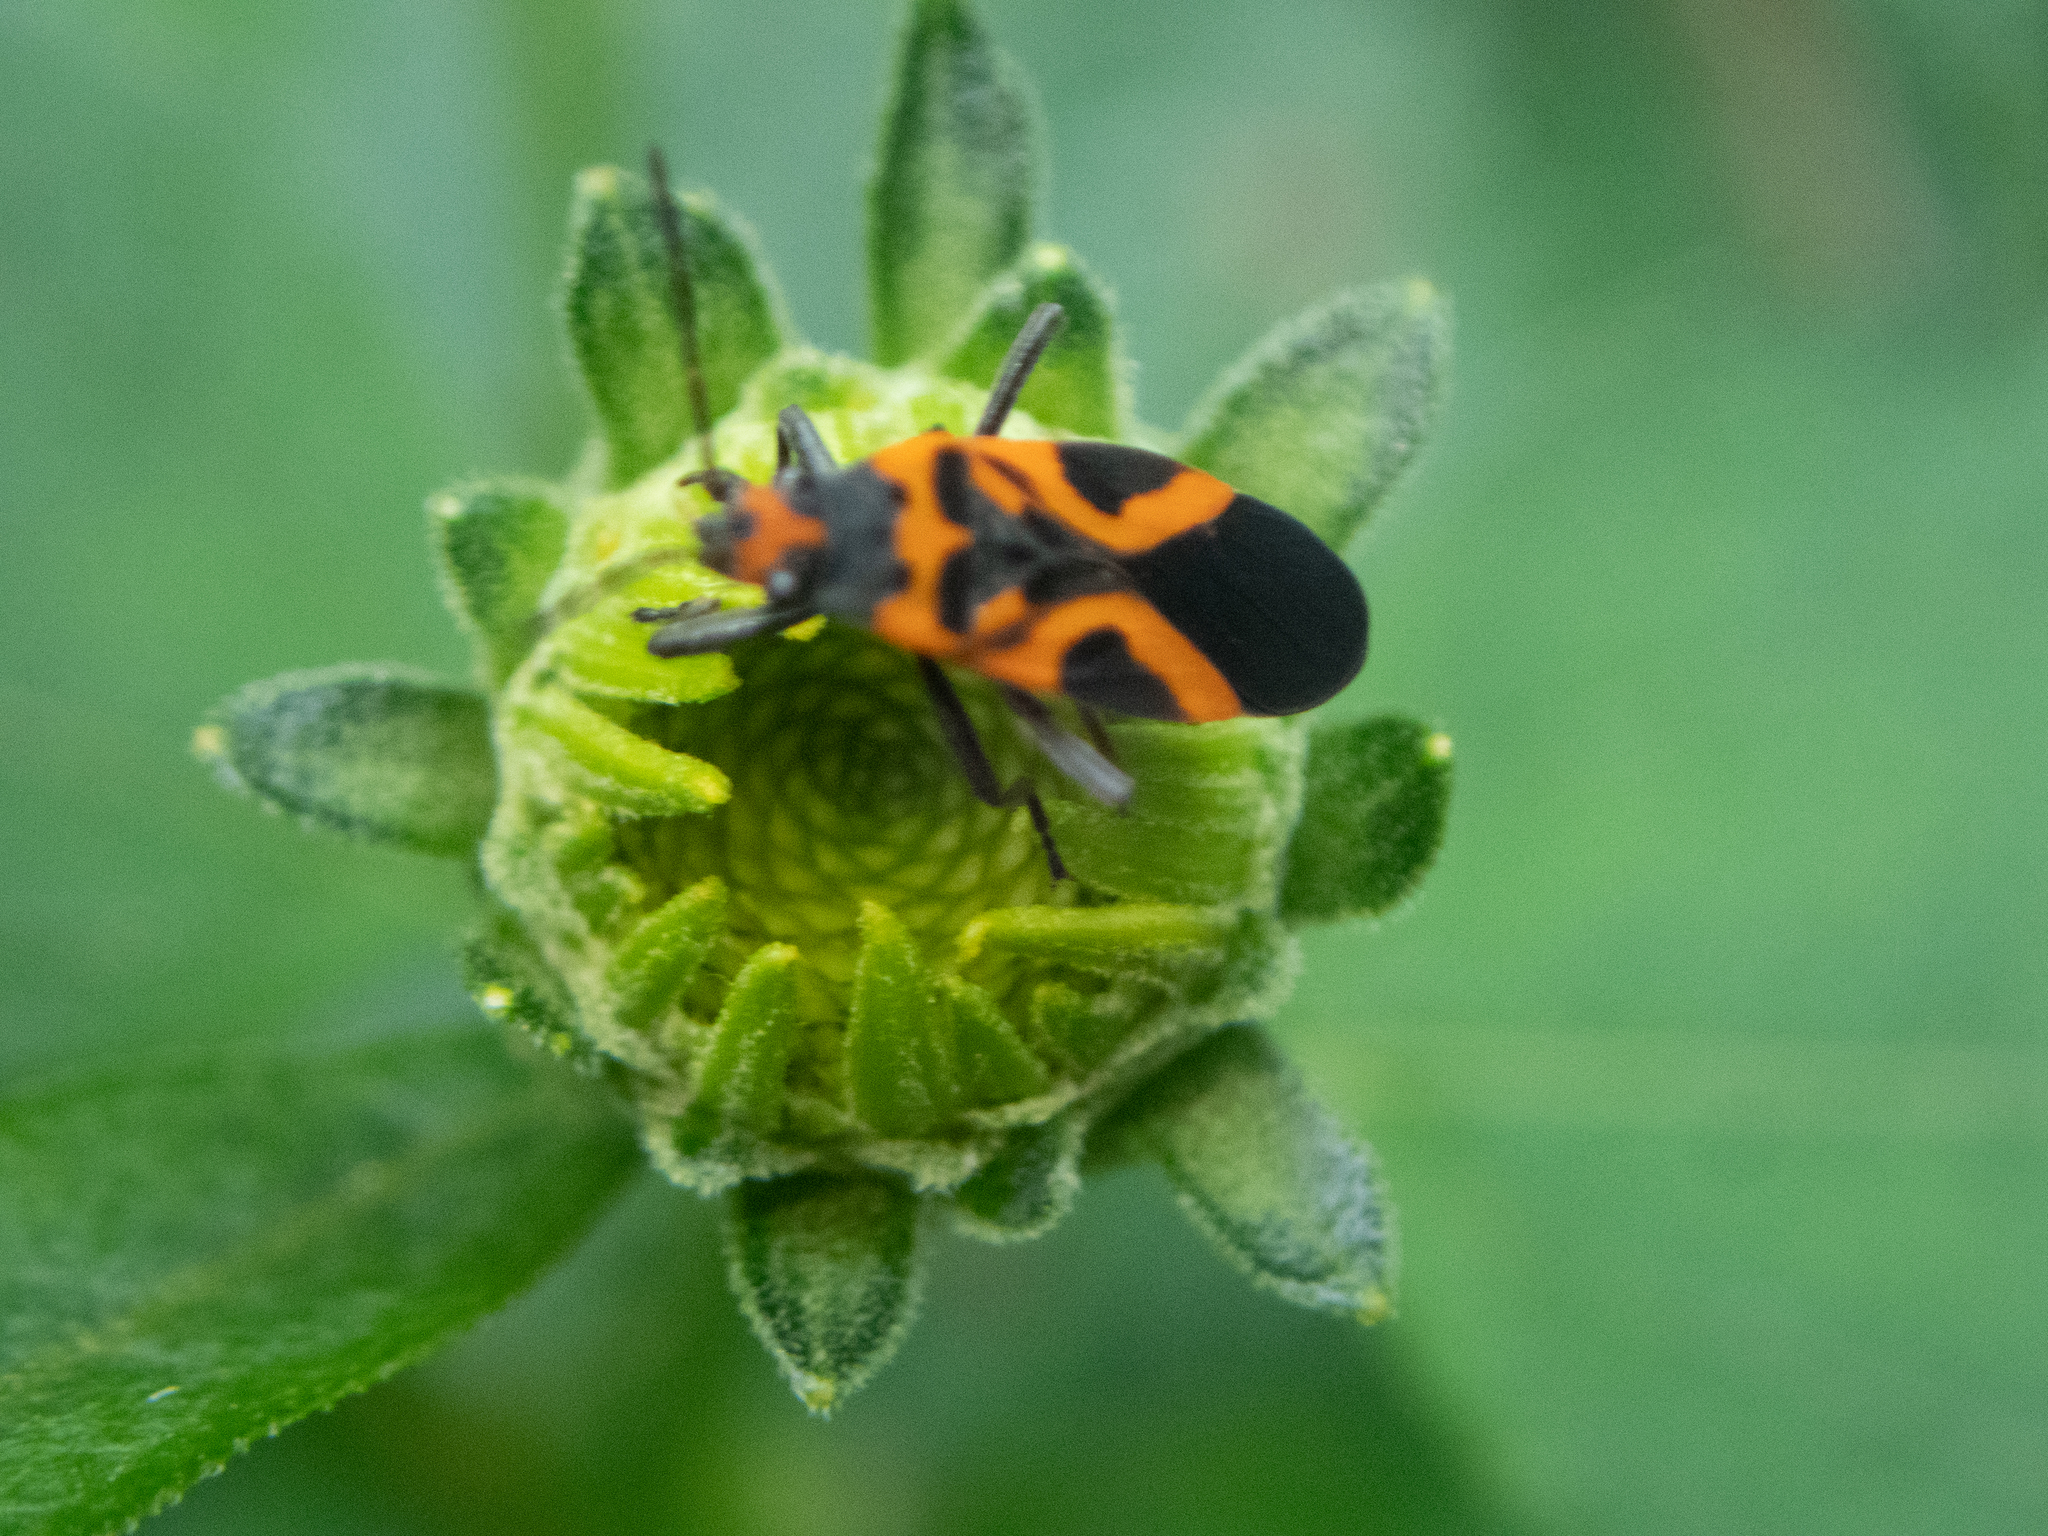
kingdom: Animalia
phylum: Arthropoda
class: Insecta
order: Hemiptera
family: Lygaeidae
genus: Lygaeus
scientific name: Lygaeus turcicus
